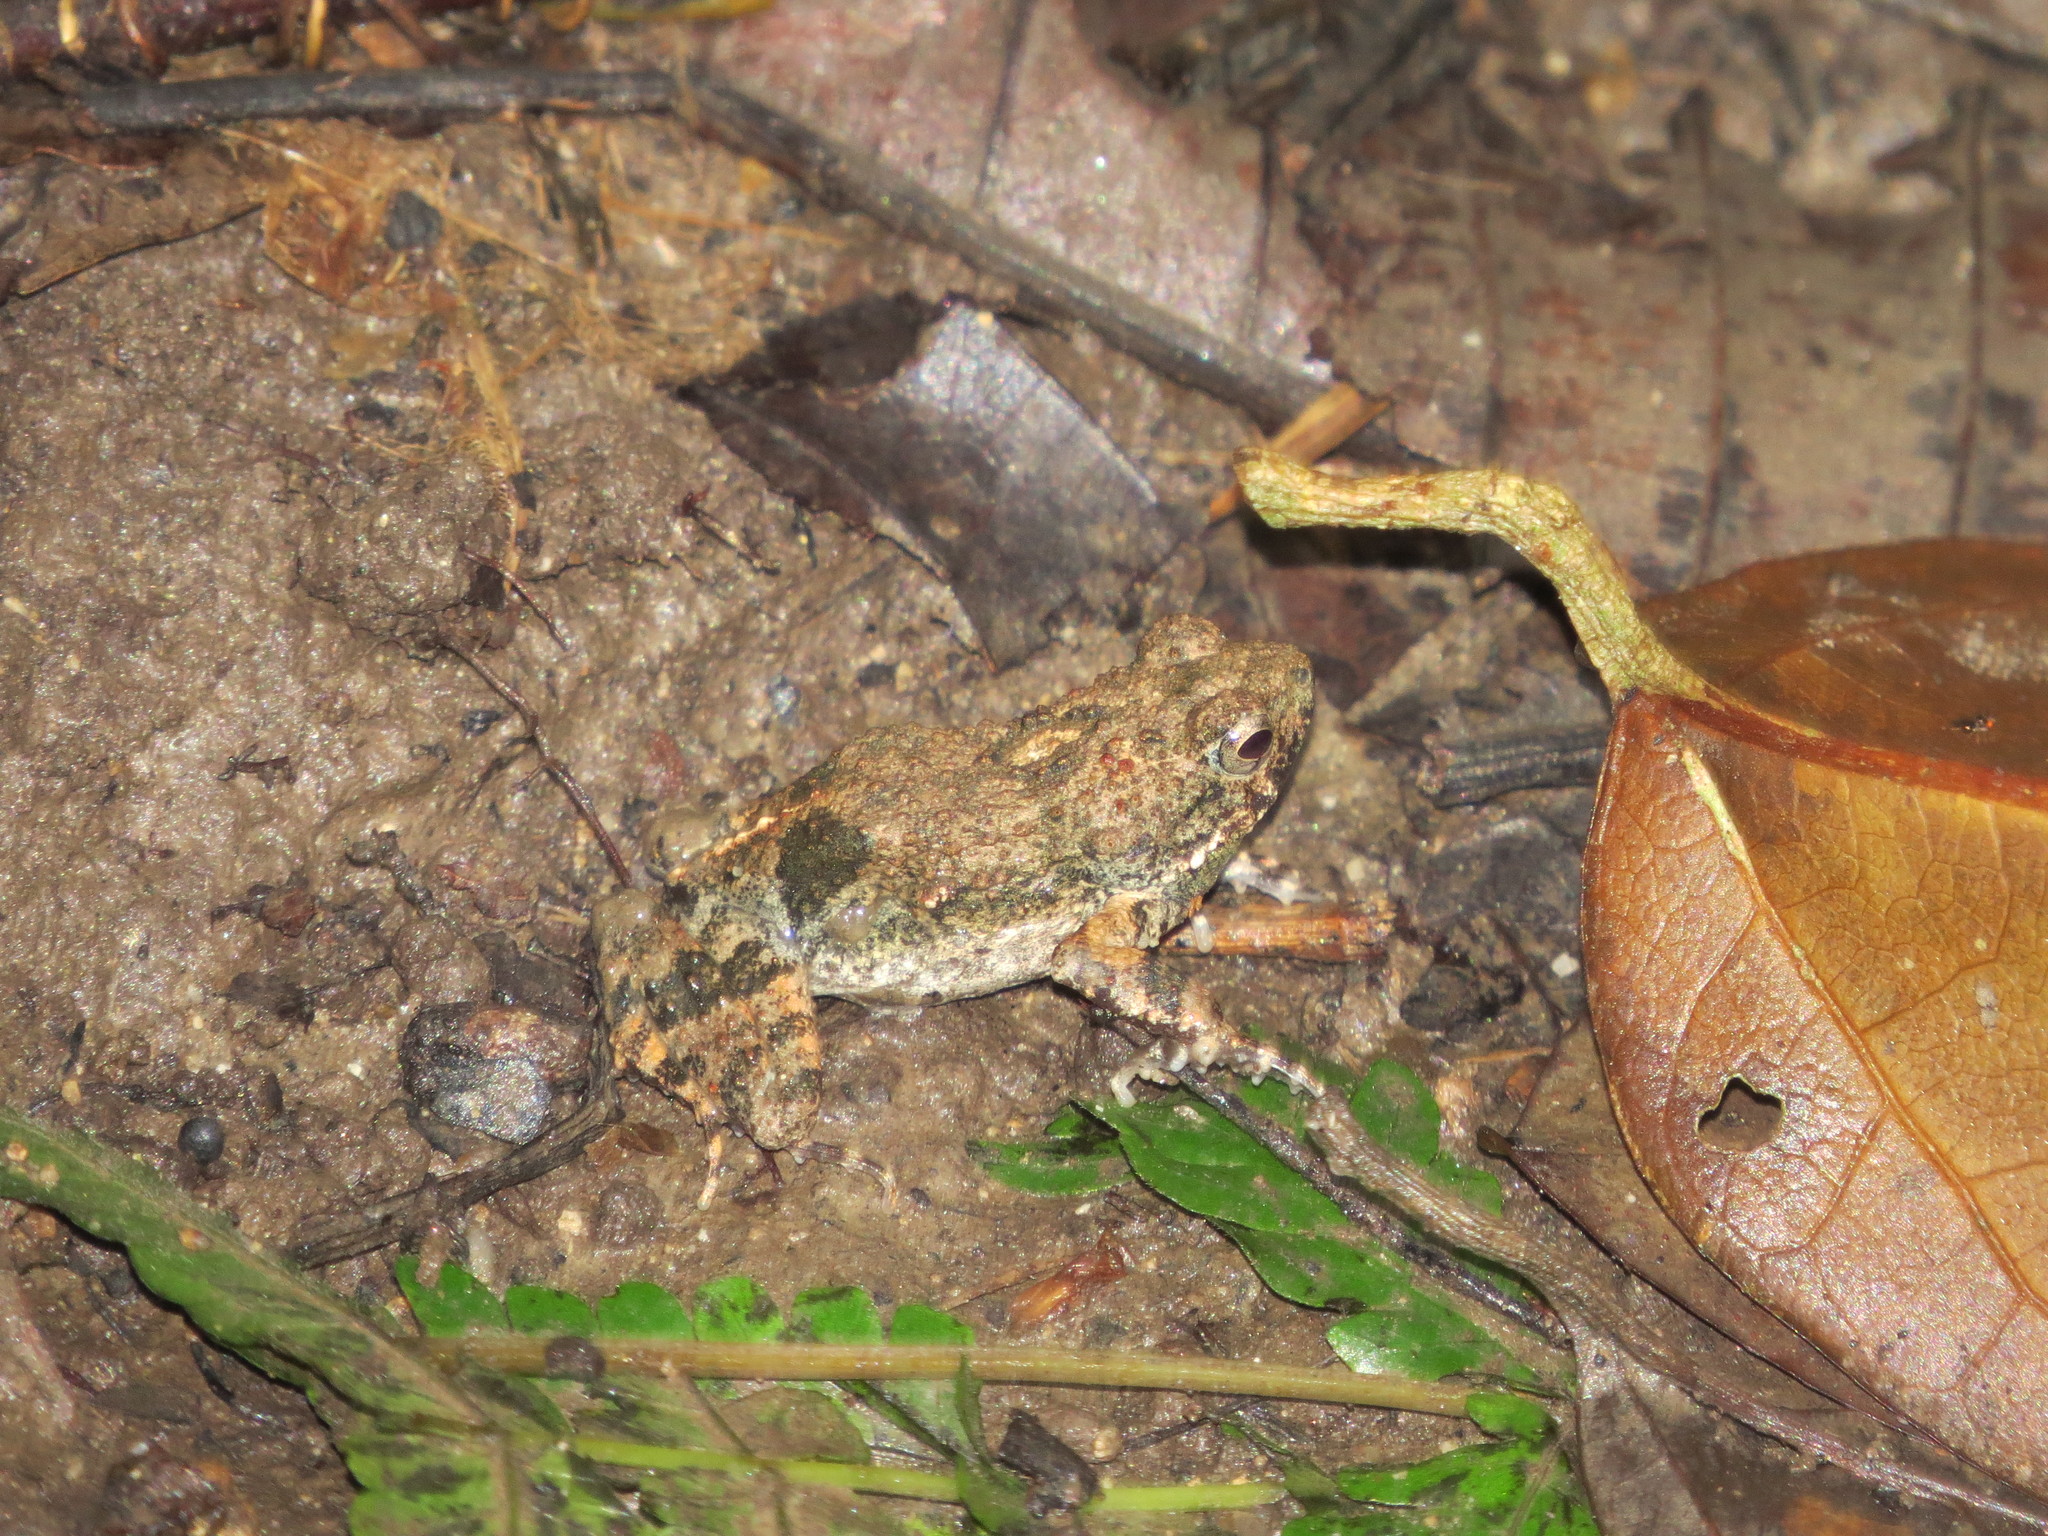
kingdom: Animalia
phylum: Chordata
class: Amphibia
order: Anura
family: Leptodactylidae
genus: Engystomops
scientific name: Engystomops pustulosus
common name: Tungara frog
